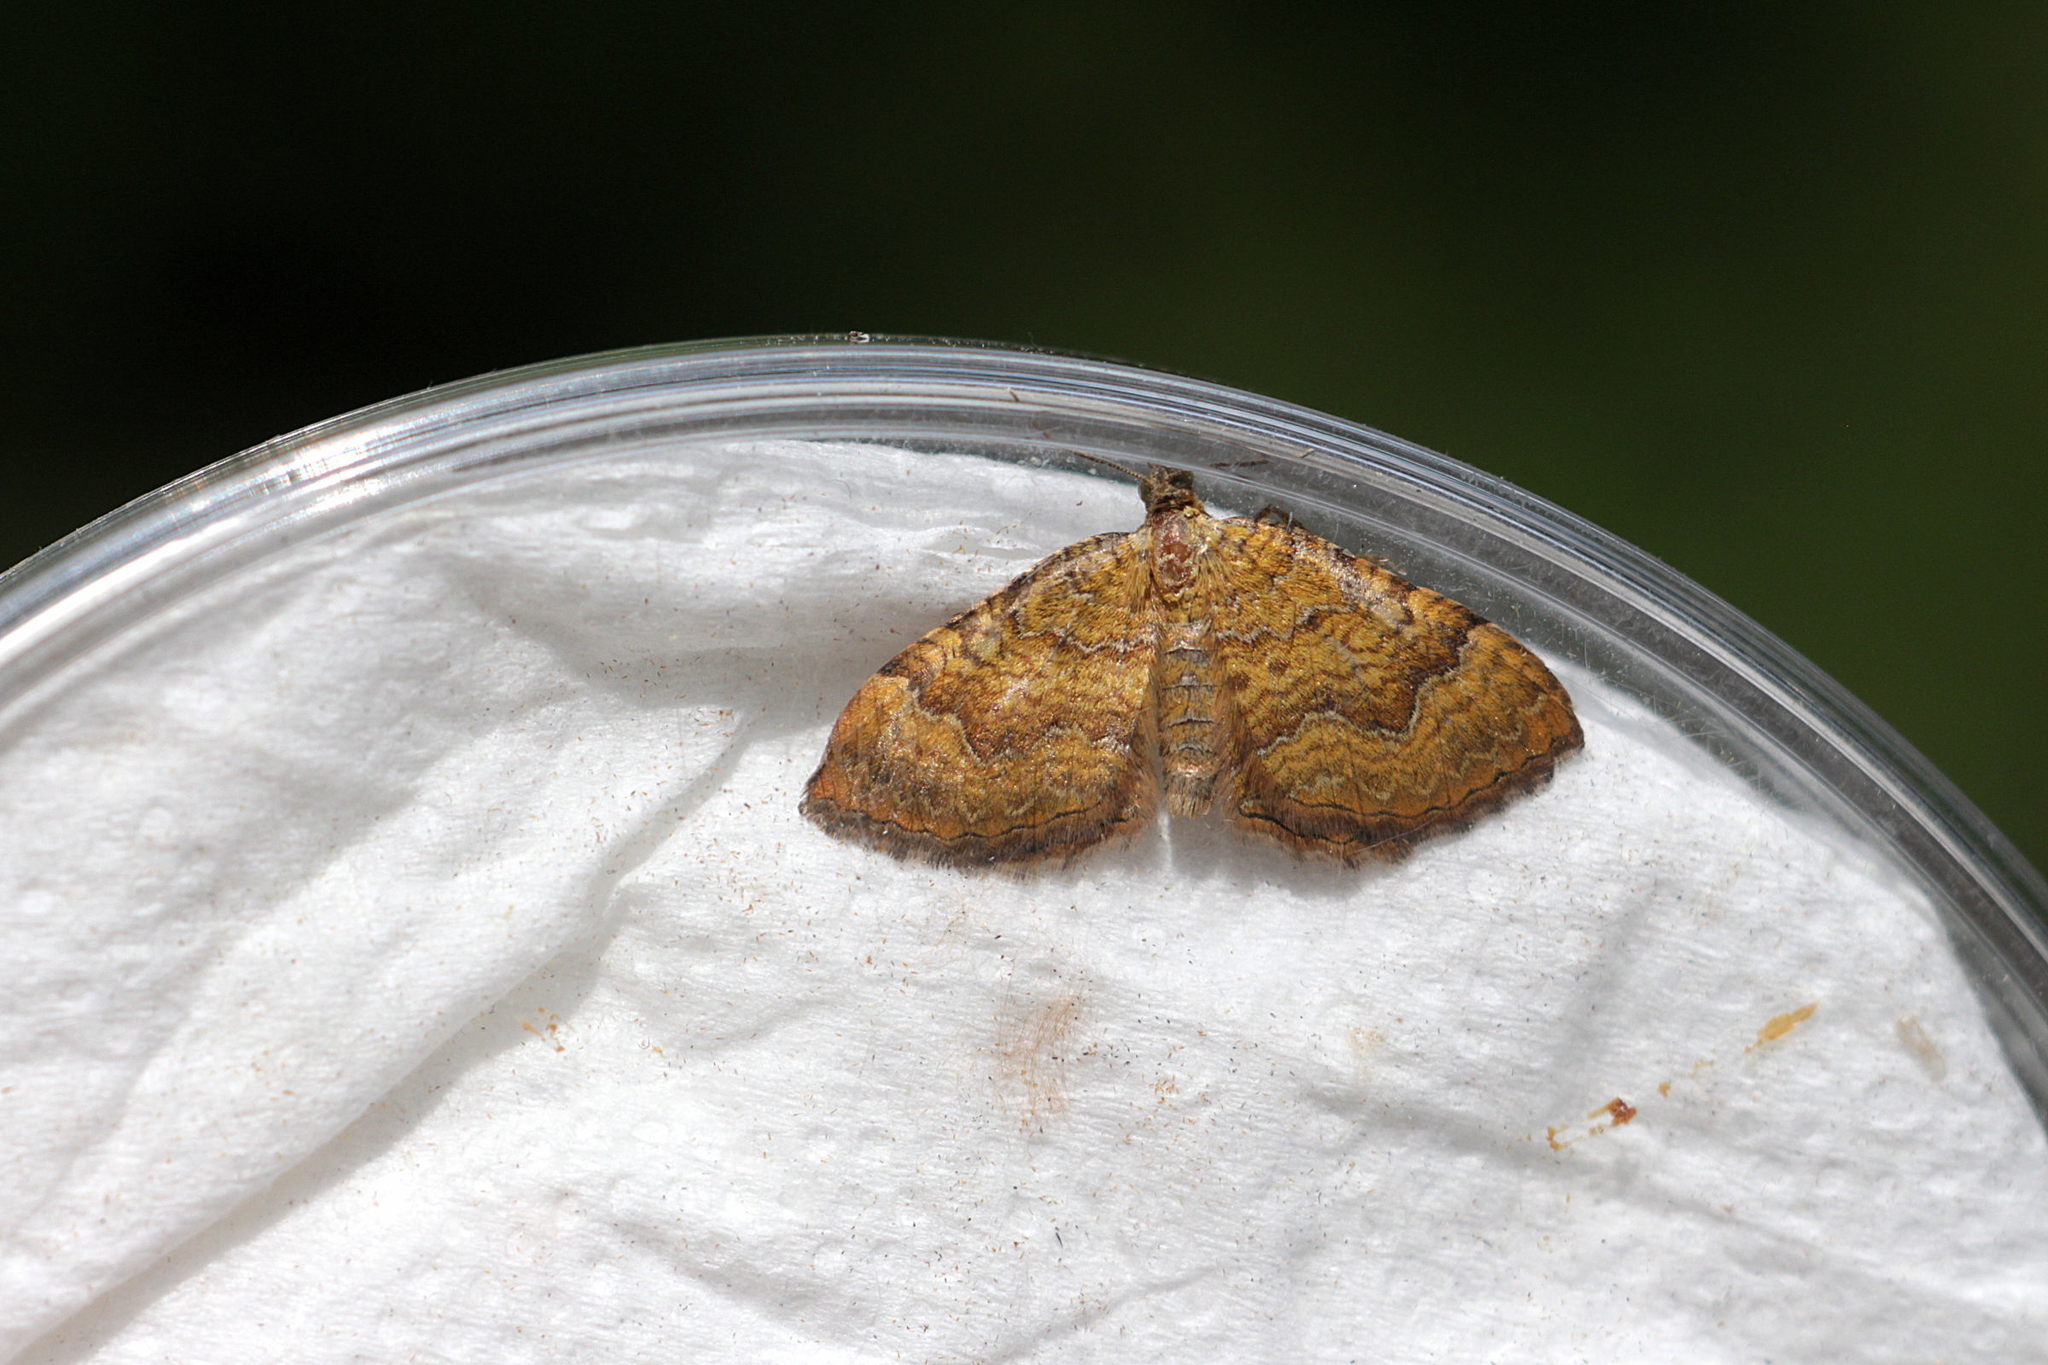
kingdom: Animalia
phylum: Arthropoda
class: Insecta
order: Lepidoptera
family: Geometridae
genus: Camptogramma
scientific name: Camptogramma bilineata
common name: Yellow shell
